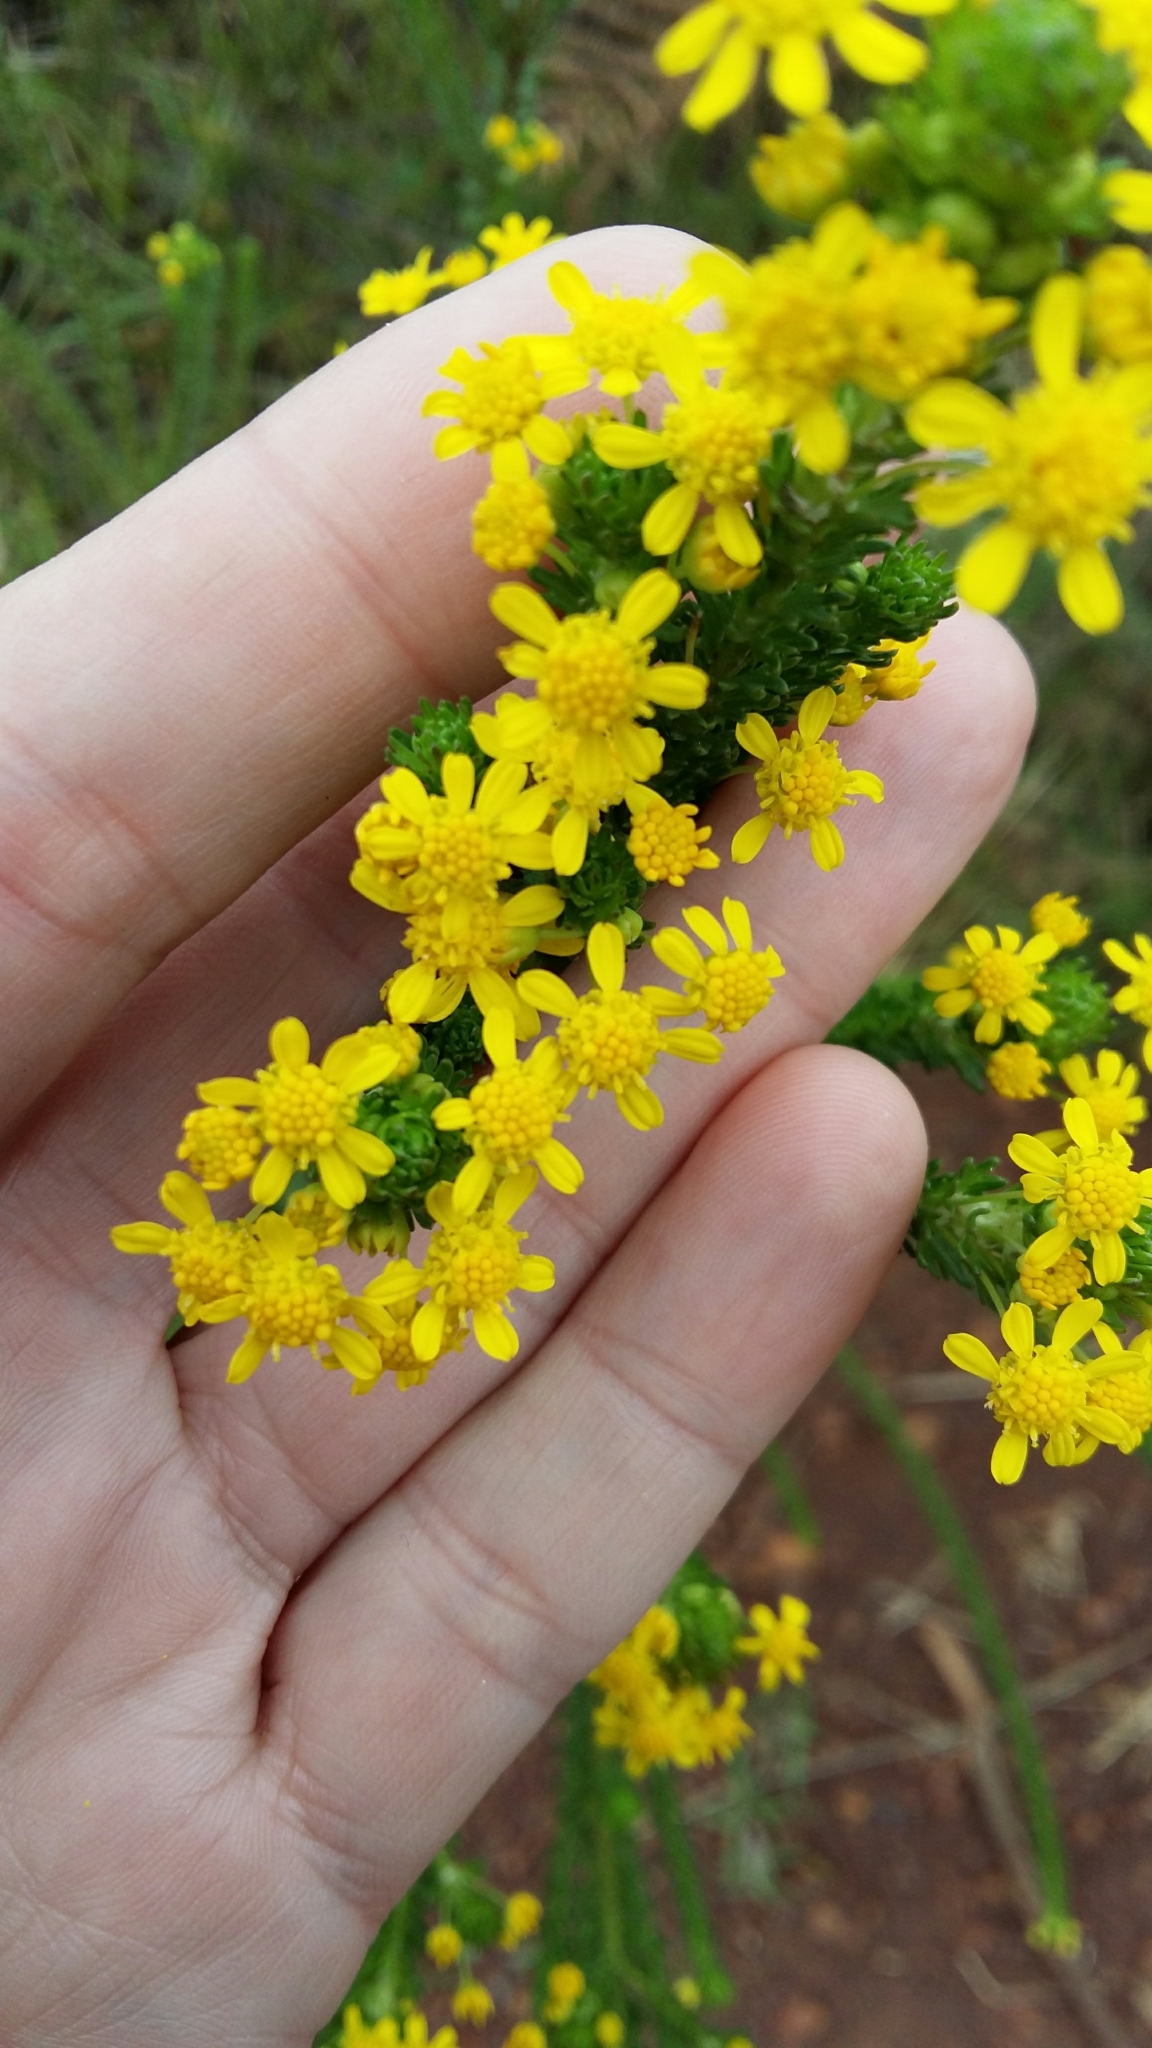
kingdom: Plantae
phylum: Tracheophyta
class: Magnoliopsida
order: Asterales
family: Asteraceae
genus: Euryops
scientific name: Euryops virgineus
